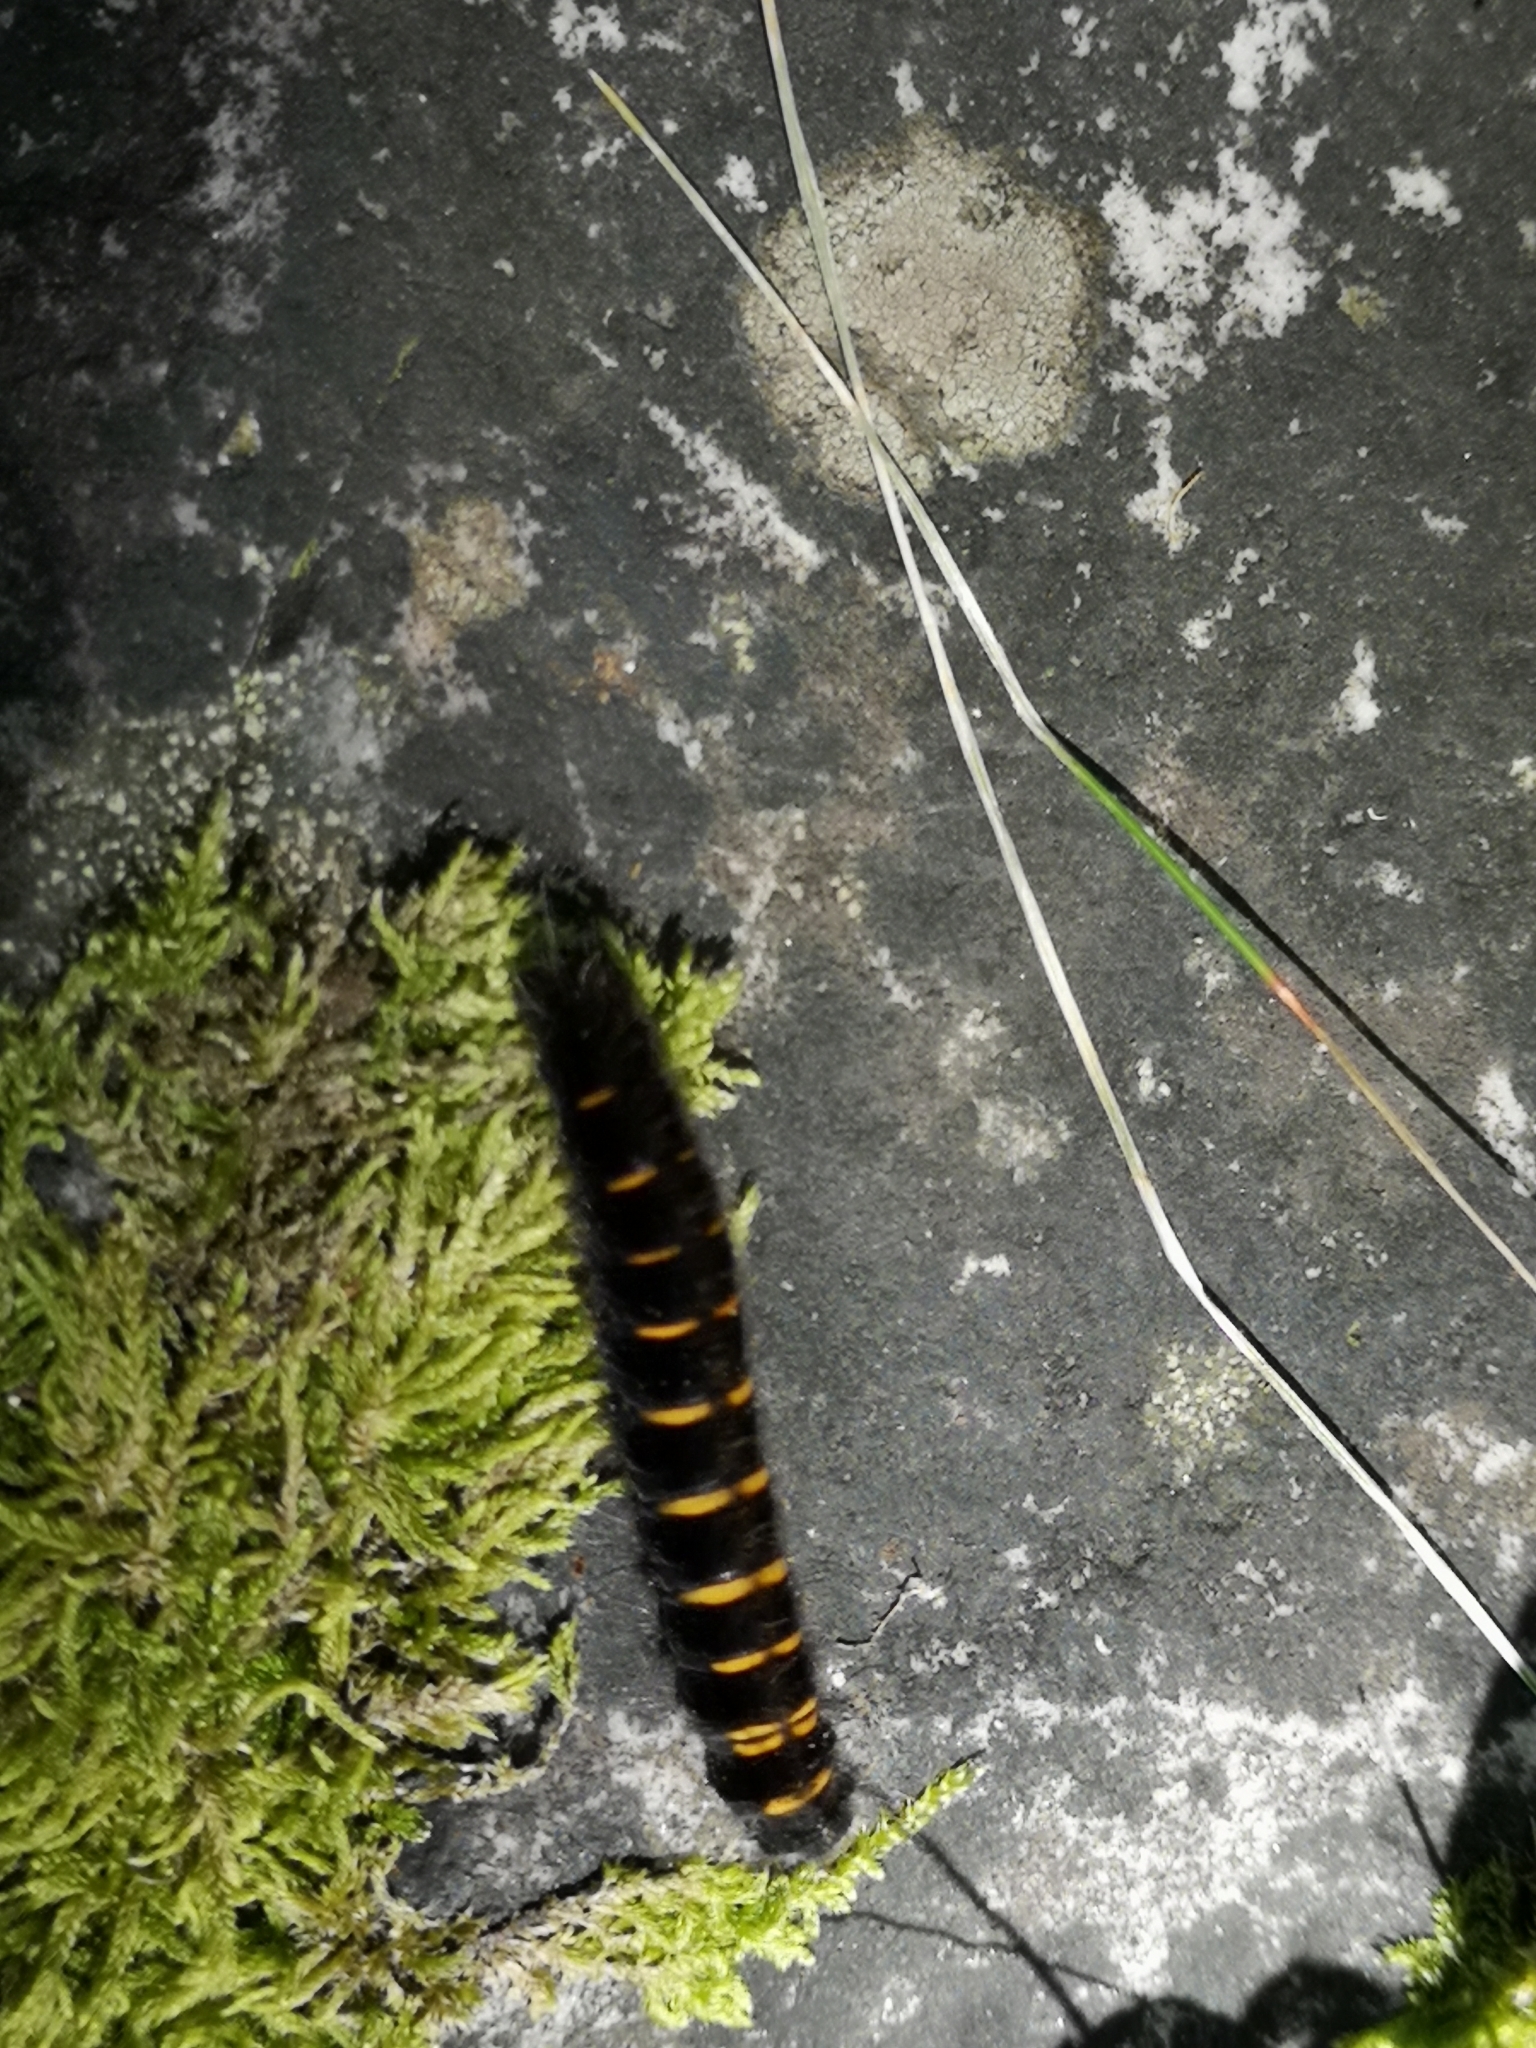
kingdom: Animalia
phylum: Arthropoda
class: Insecta
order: Lepidoptera
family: Lasiocampidae
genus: Macrothylacia
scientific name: Macrothylacia rubi
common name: Fox moth
